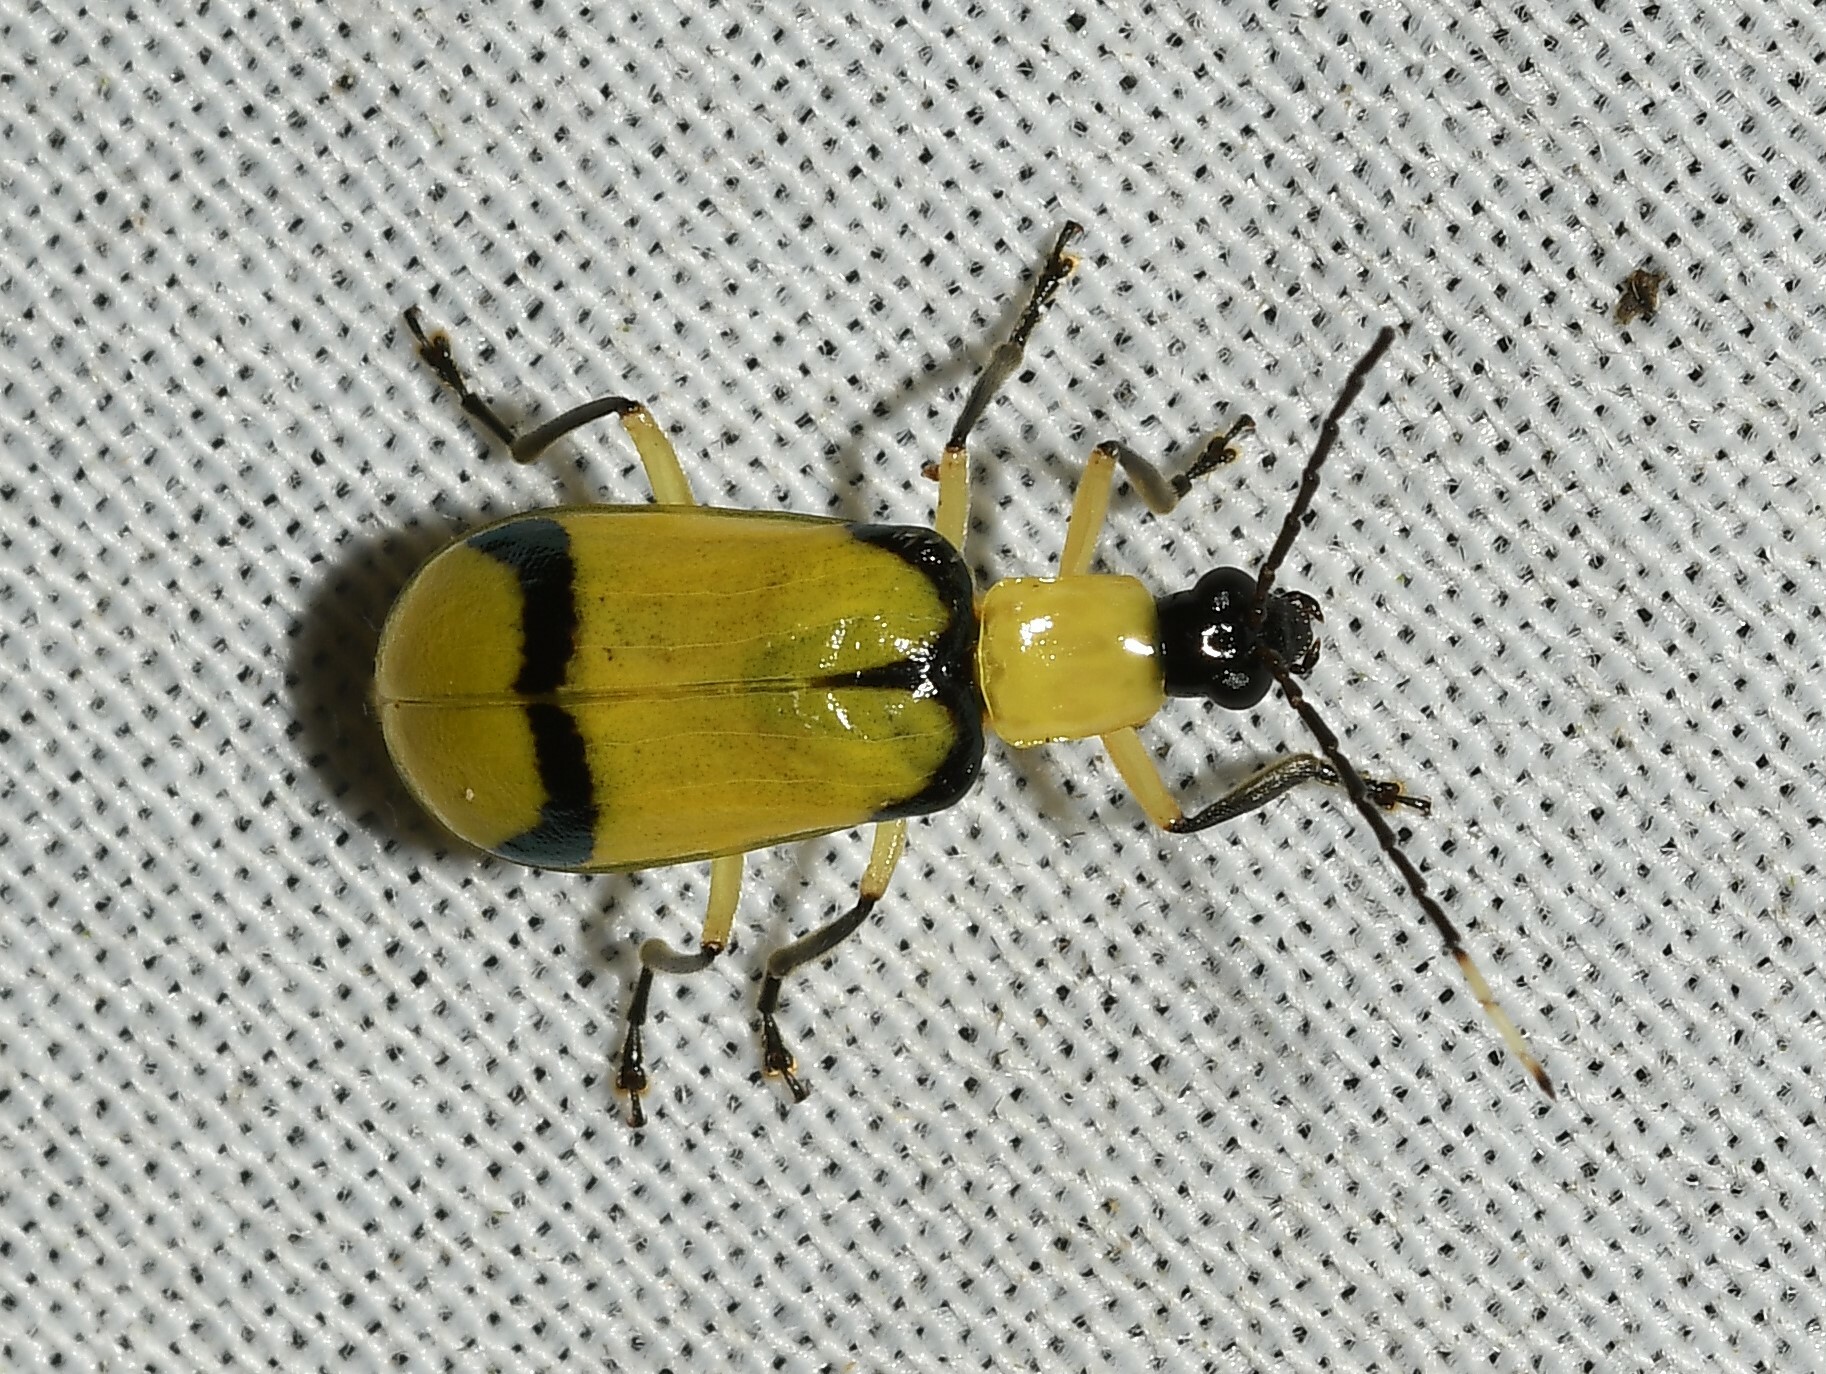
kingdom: Animalia
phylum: Arthropoda
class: Insecta
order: Coleoptera
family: Chrysomelidae
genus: Diabrotica
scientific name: Diabrotica
